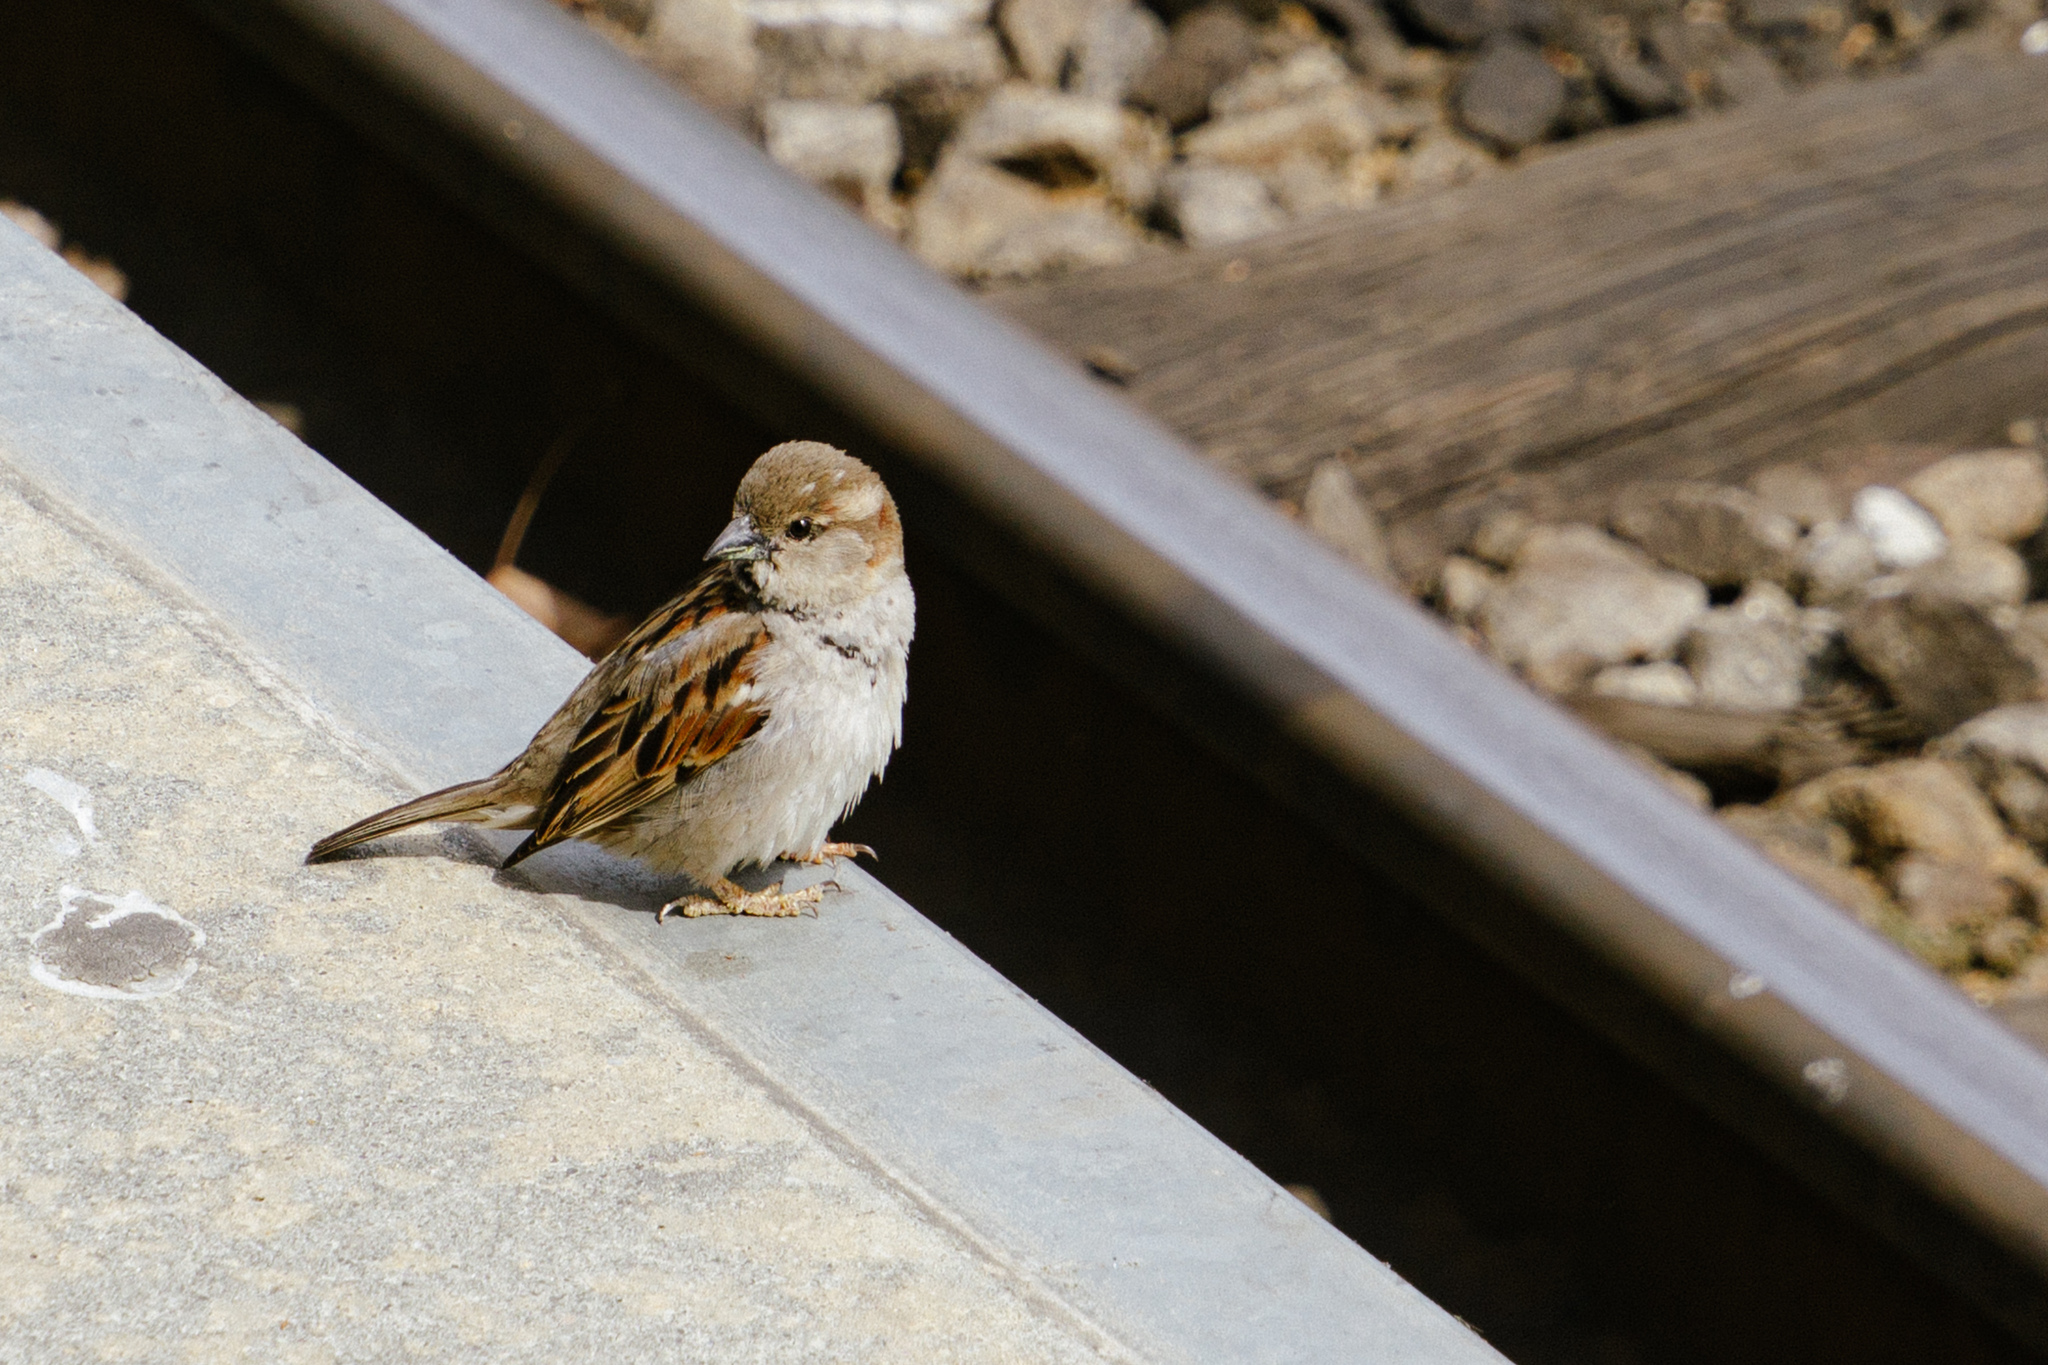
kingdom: Animalia
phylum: Chordata
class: Aves
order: Passeriformes
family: Passeridae
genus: Passer
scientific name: Passer domesticus
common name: House sparrow
